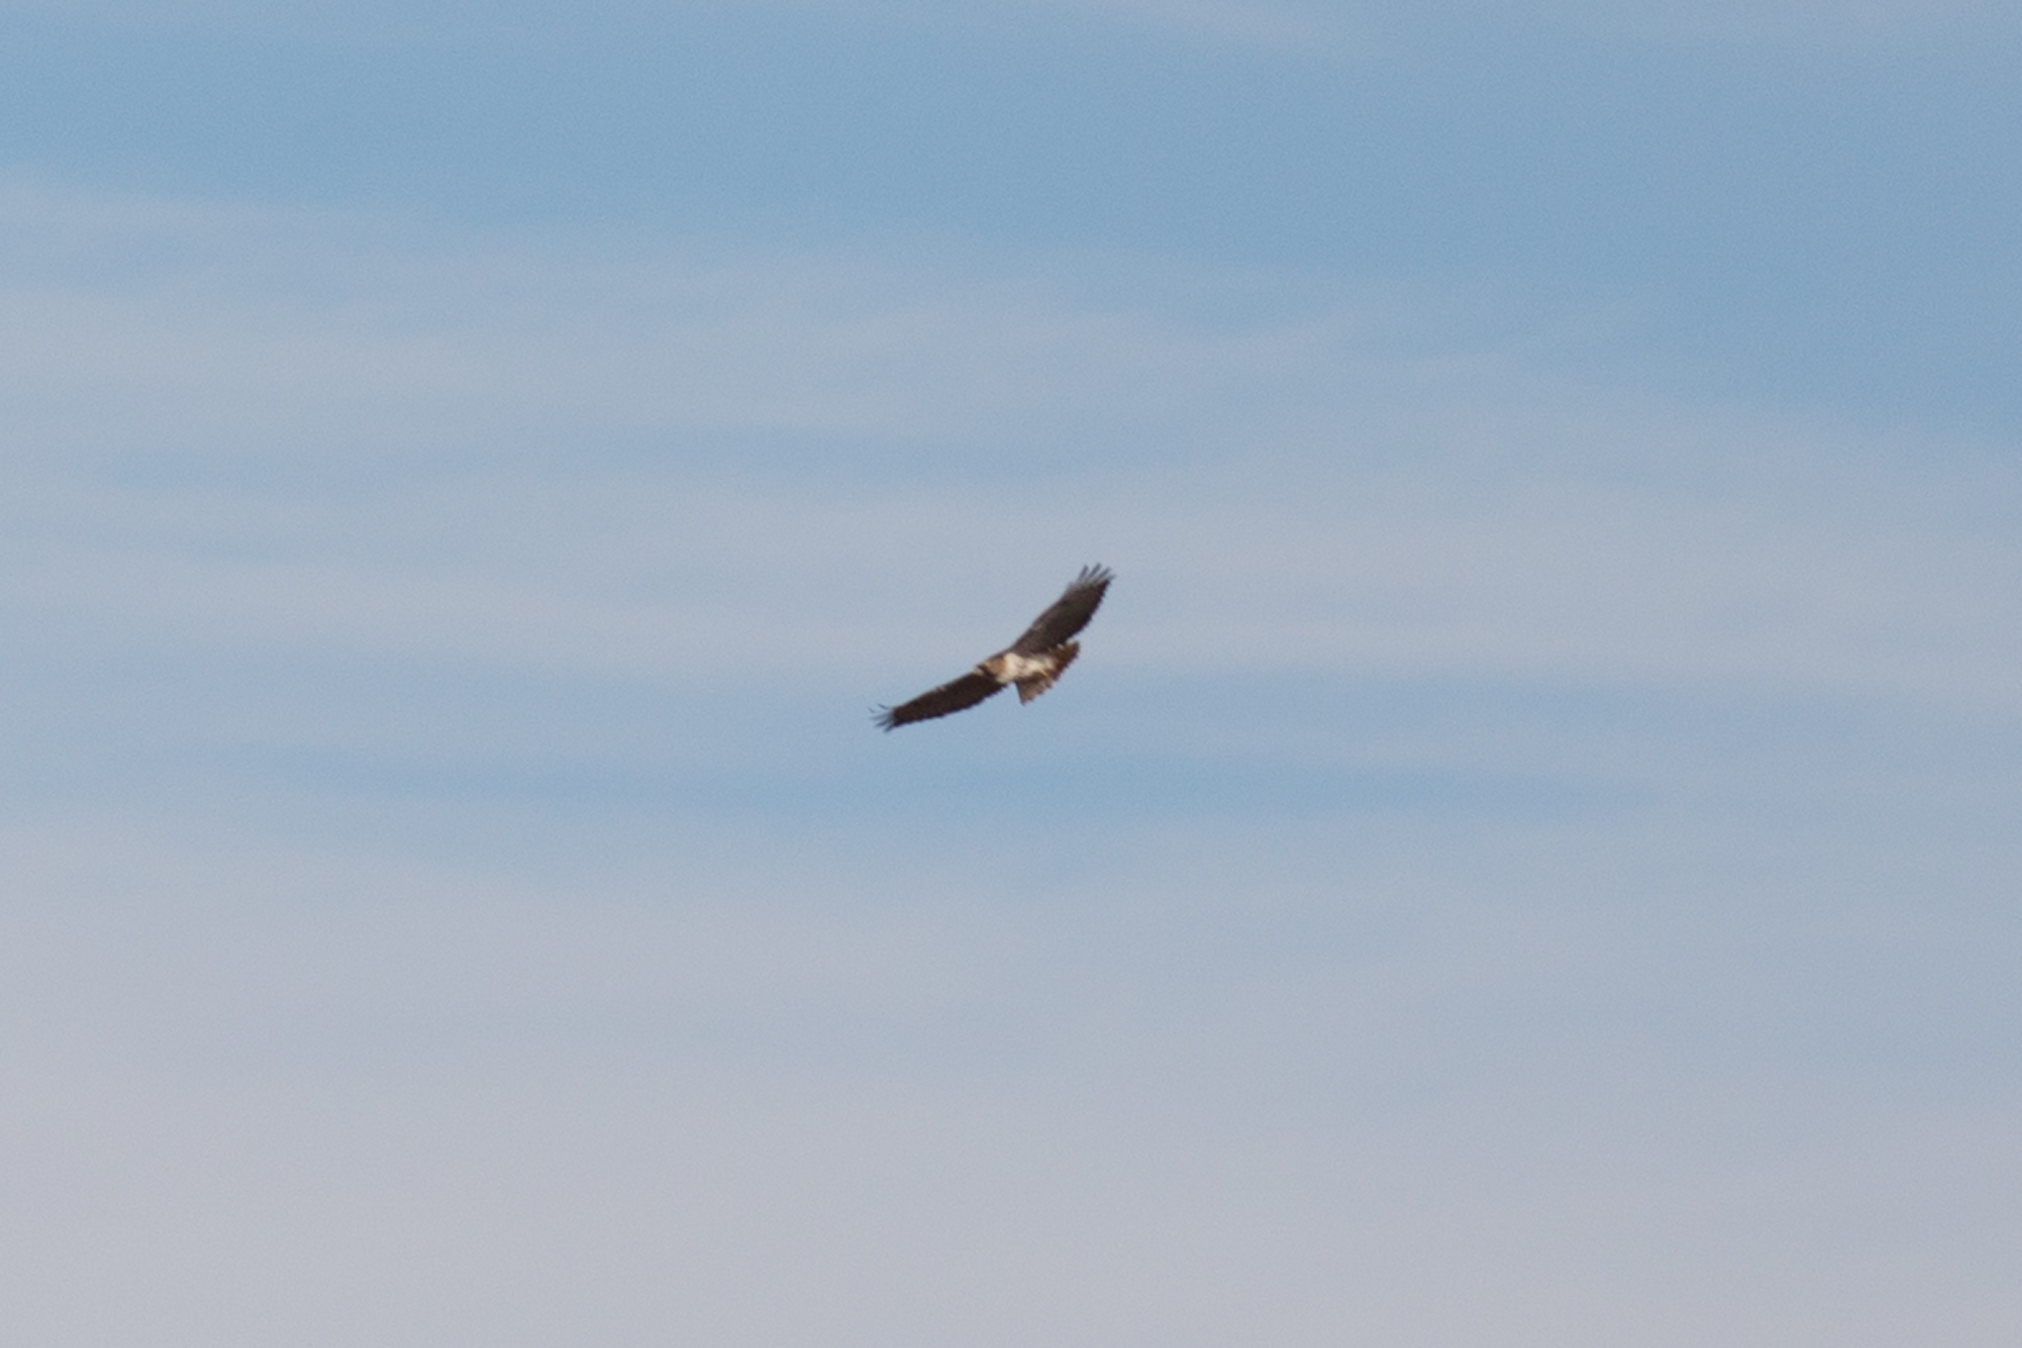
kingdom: Animalia
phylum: Chordata
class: Aves
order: Accipitriformes
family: Accipitridae
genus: Buteo
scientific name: Buteo jamaicensis
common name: Red-tailed hawk
